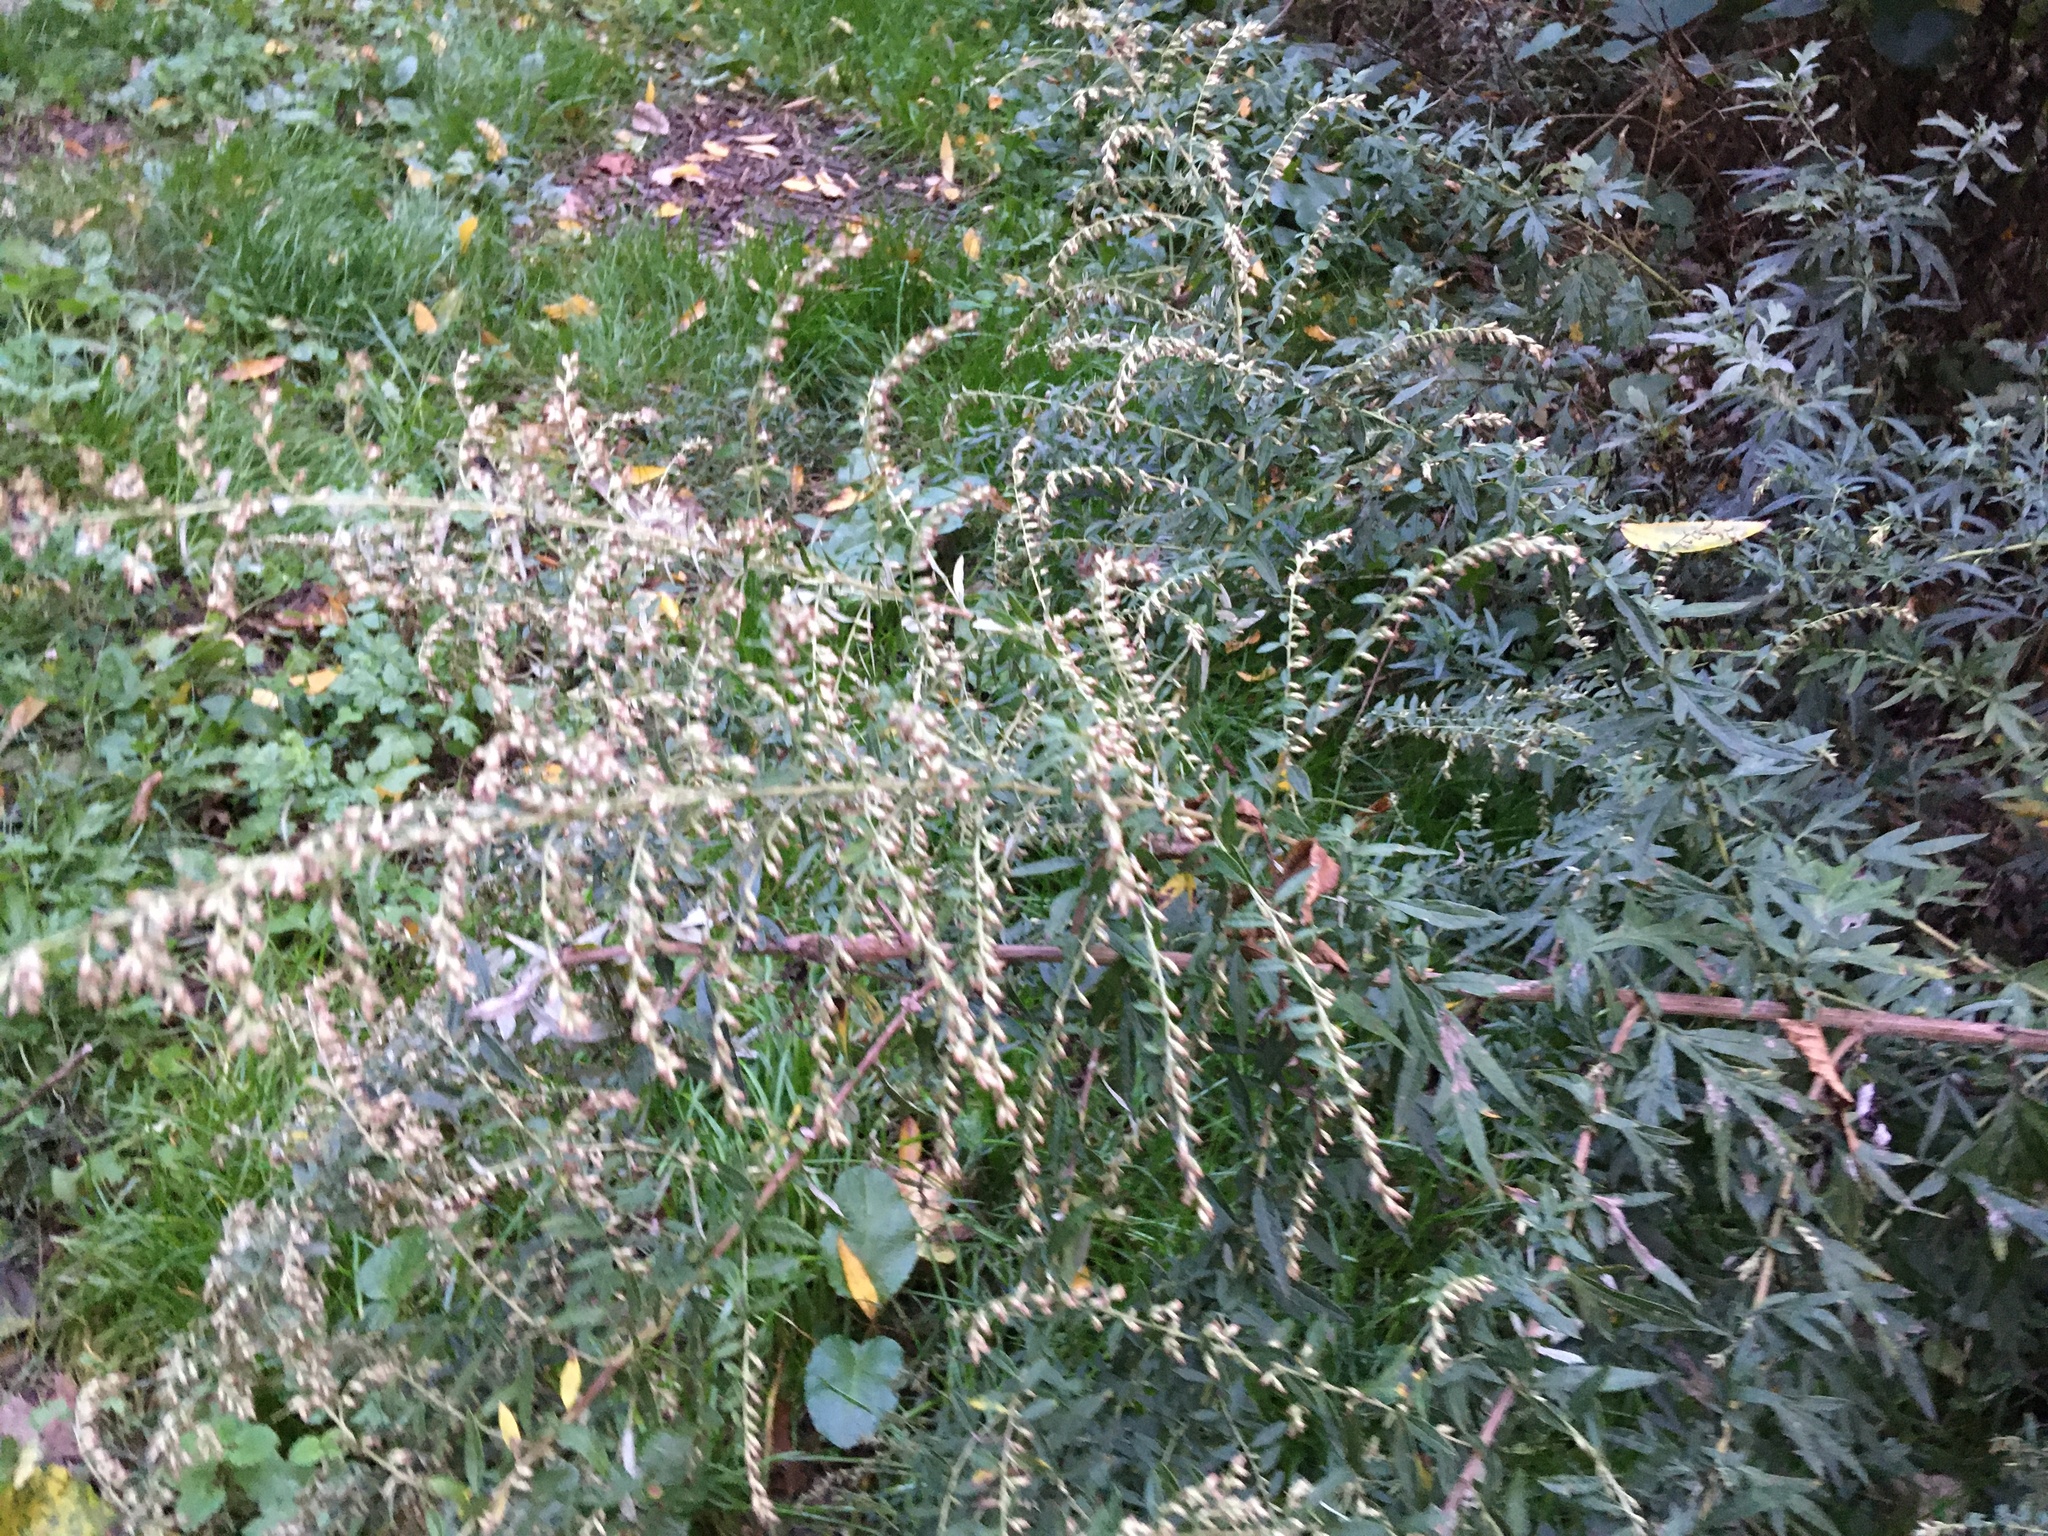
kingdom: Plantae
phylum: Tracheophyta
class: Magnoliopsida
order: Asterales
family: Asteraceae
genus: Artemisia
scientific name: Artemisia vulgaris
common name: Mugwort
